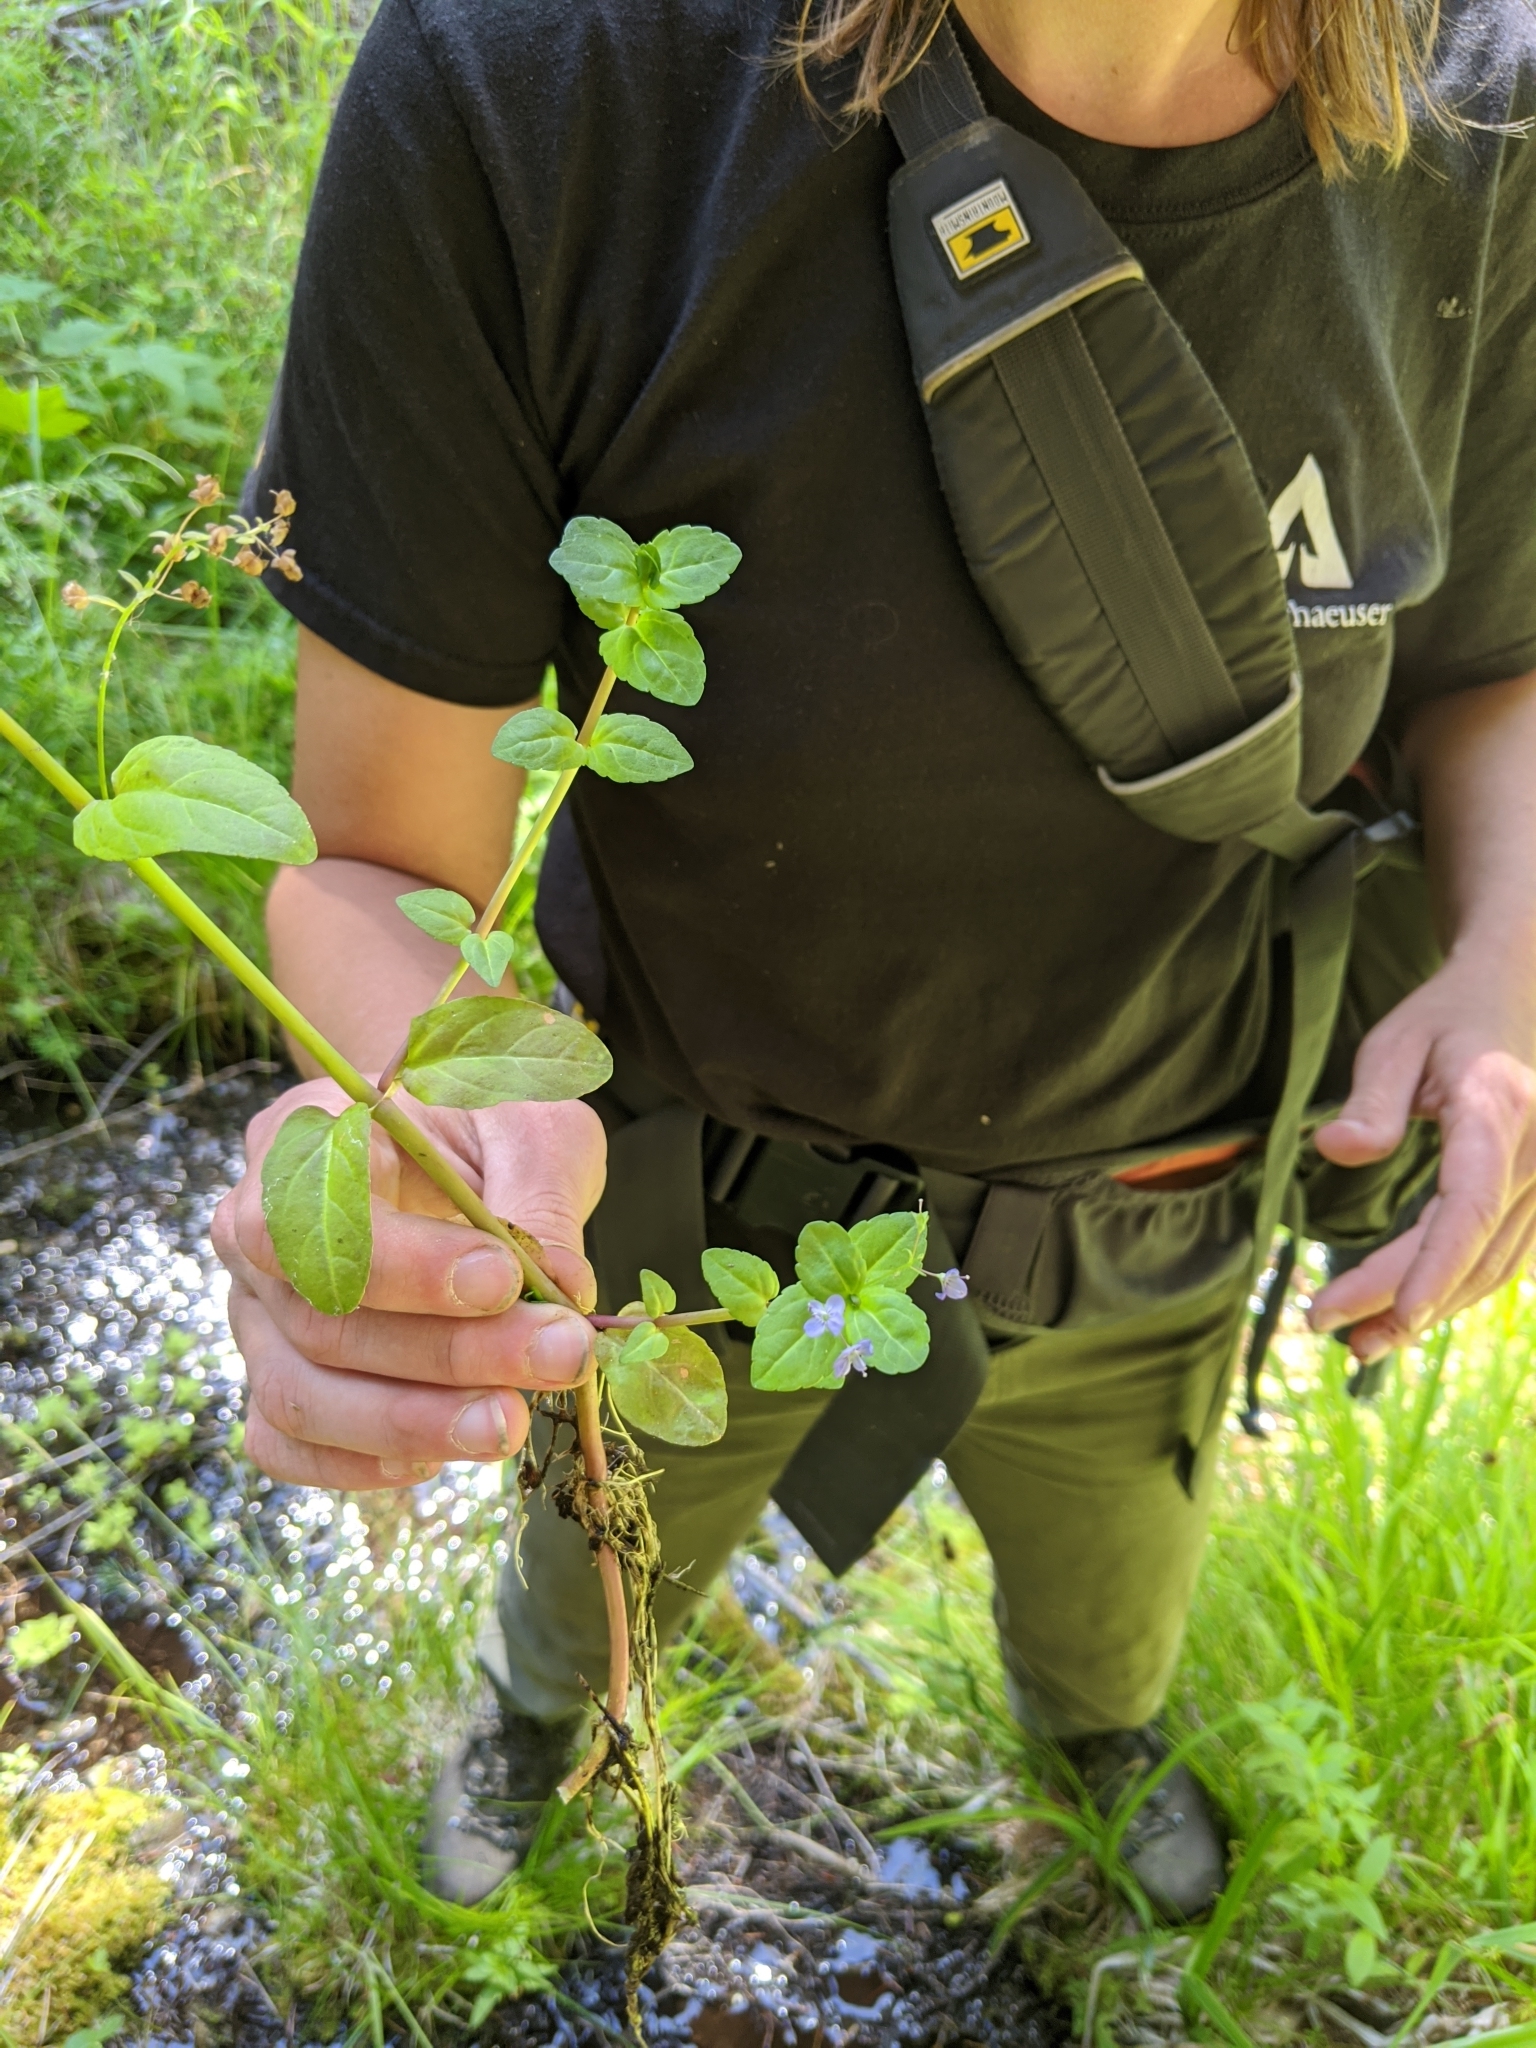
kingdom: Plantae
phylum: Tracheophyta
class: Magnoliopsida
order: Lamiales
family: Plantaginaceae
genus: Veronica
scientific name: Veronica americana
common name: American brooklime
